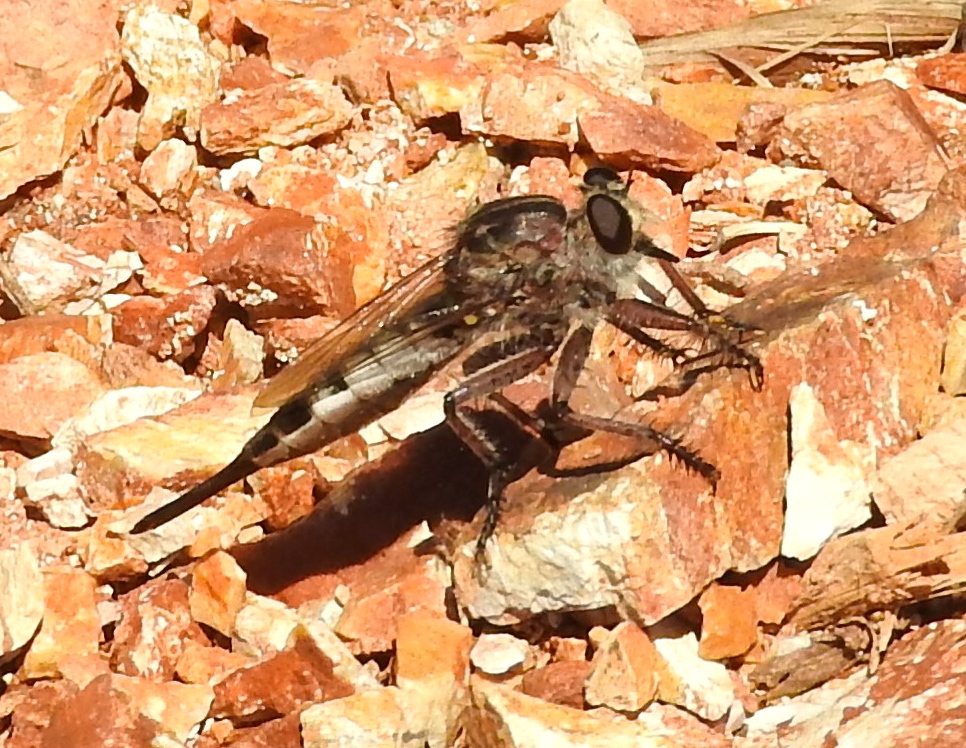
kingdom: Animalia
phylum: Arthropoda
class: Insecta
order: Diptera
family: Asilidae
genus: Efferia
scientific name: Efferia
